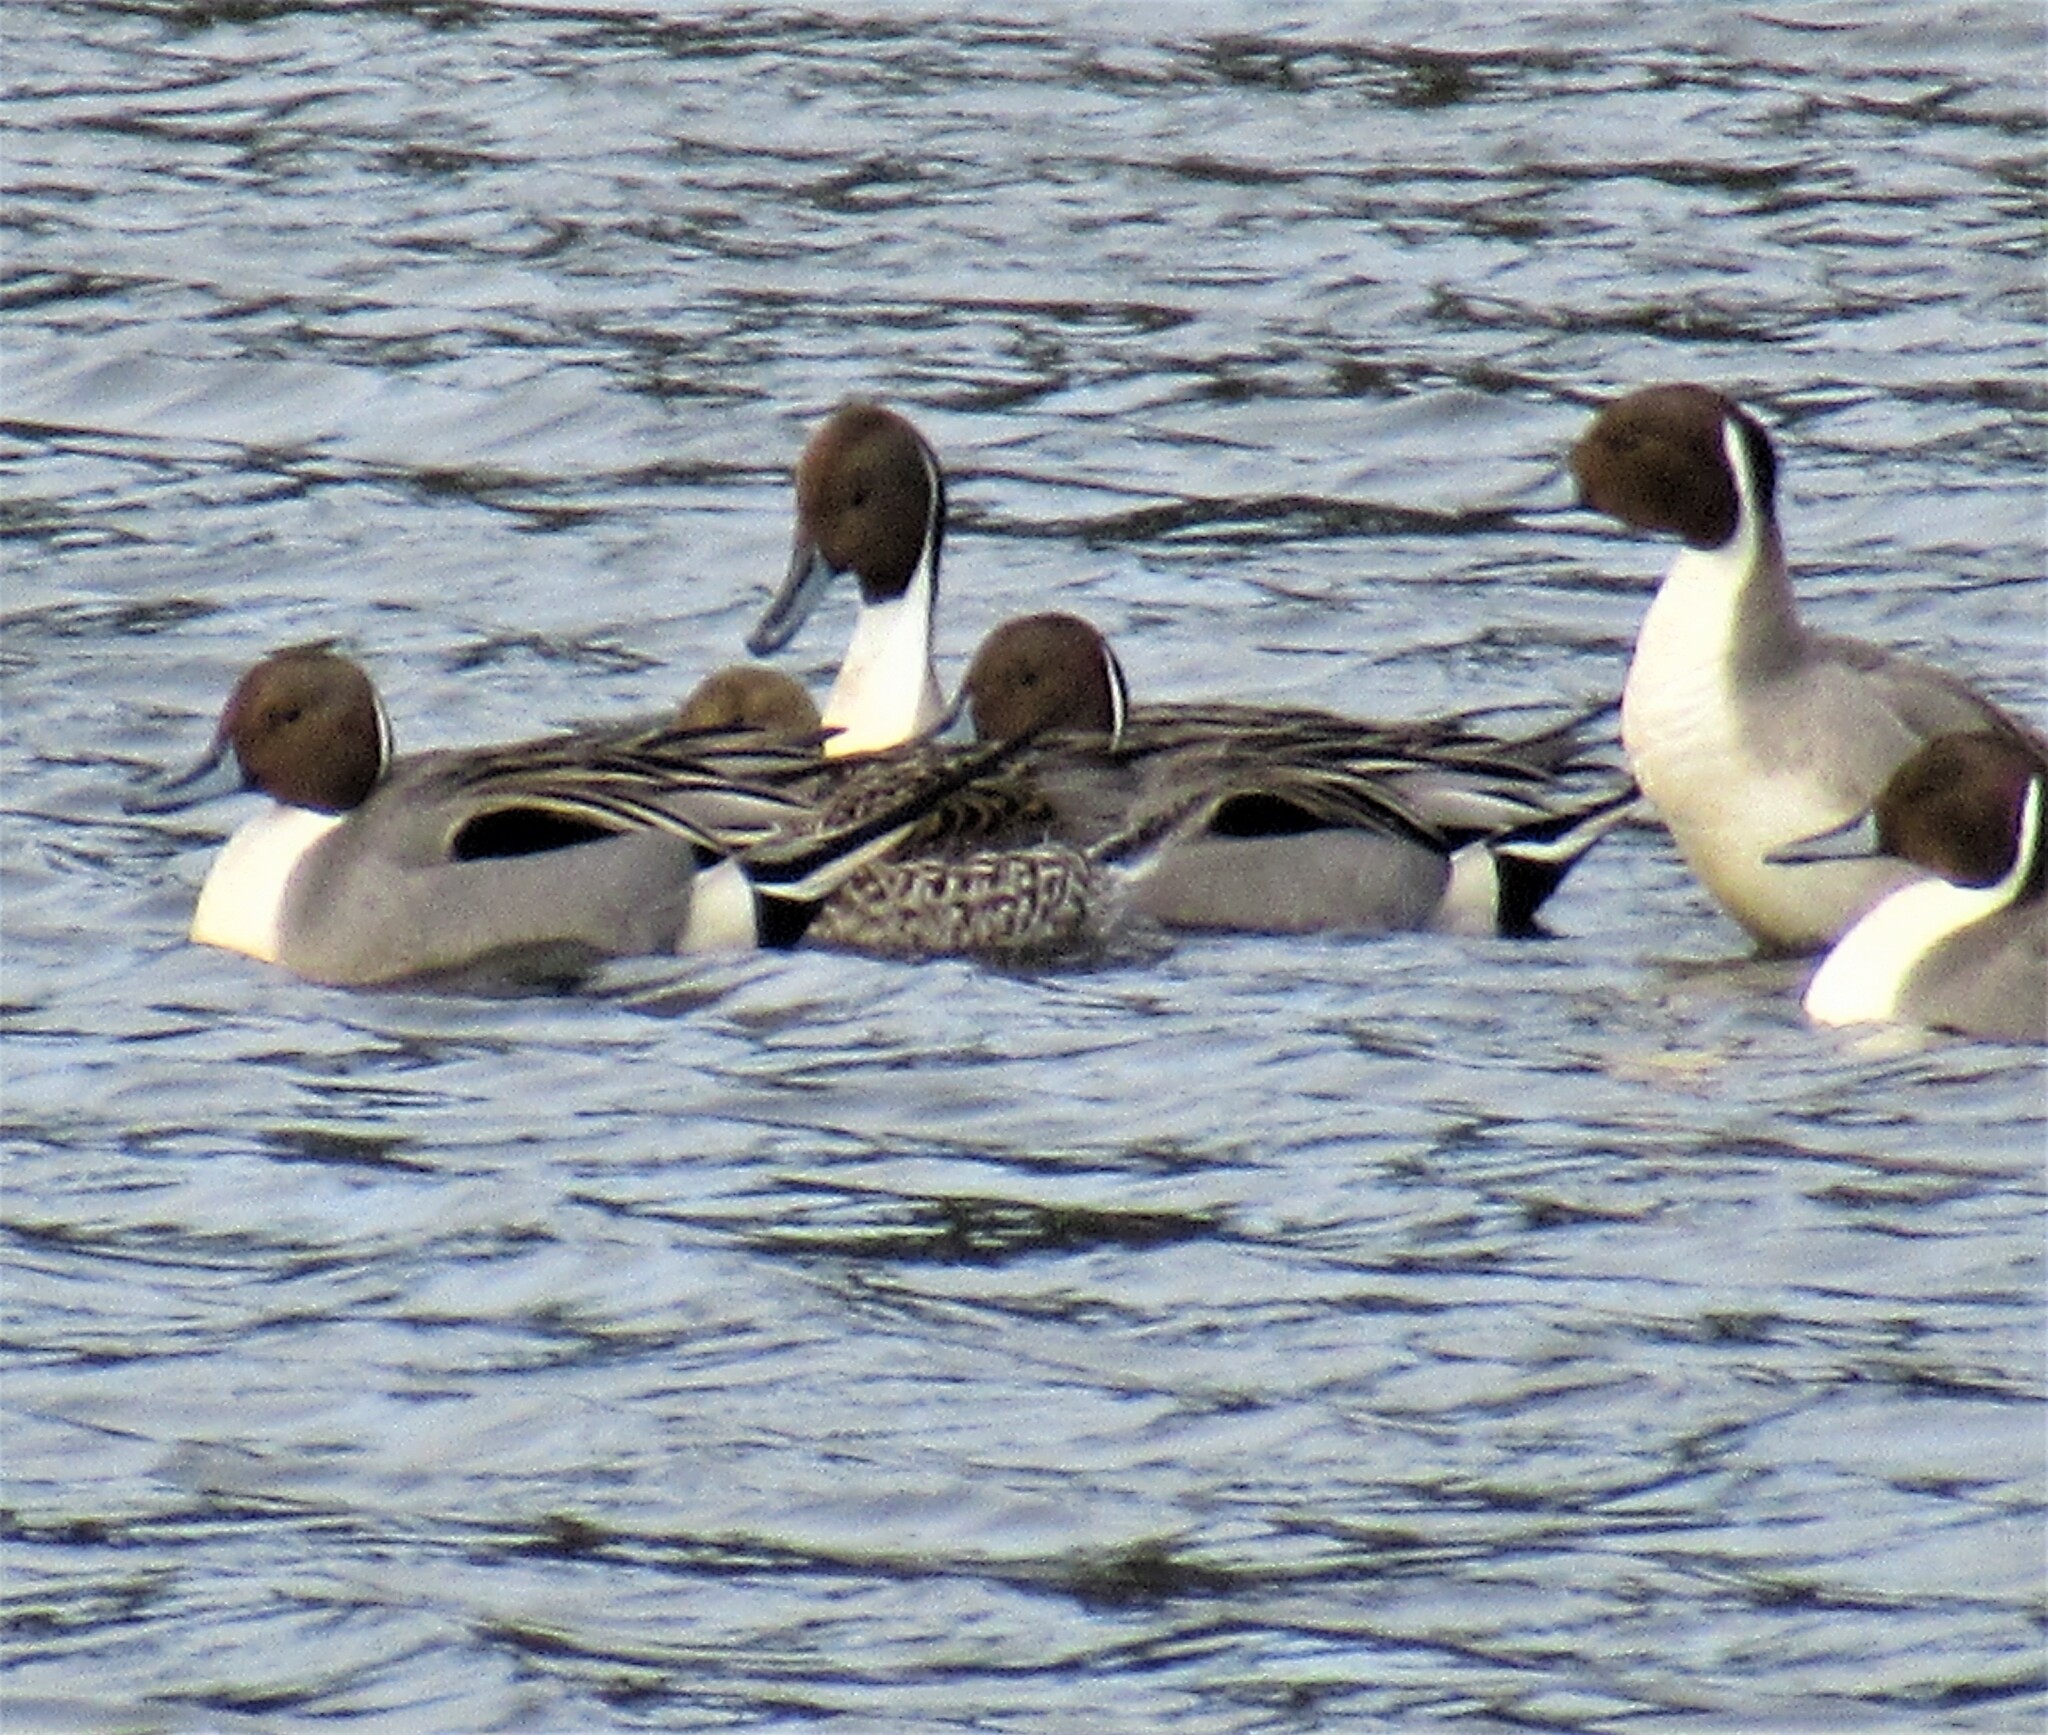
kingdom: Animalia
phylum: Chordata
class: Aves
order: Anseriformes
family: Anatidae
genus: Anas
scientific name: Anas acuta
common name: Northern pintail
